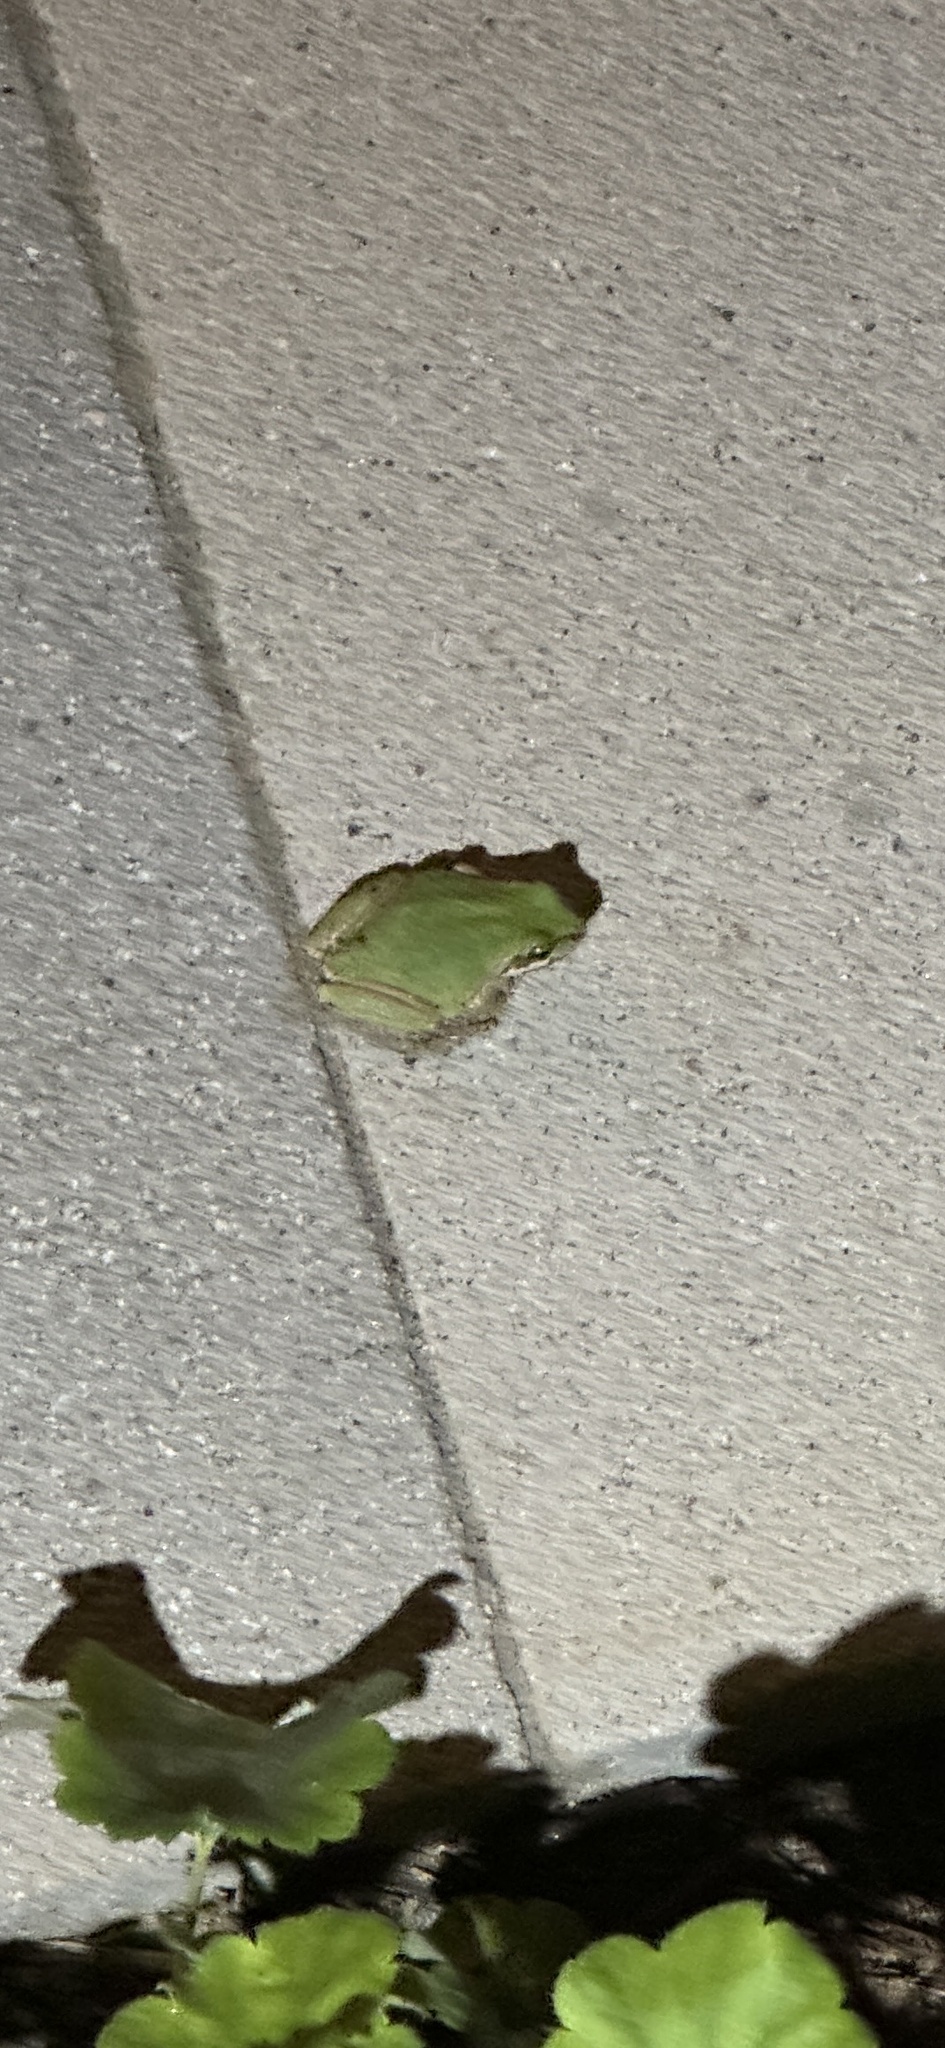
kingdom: Animalia
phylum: Chordata
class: Amphibia
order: Anura
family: Hylidae
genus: Pseudacris
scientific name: Pseudacris regilla
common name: Pacific chorus frog
